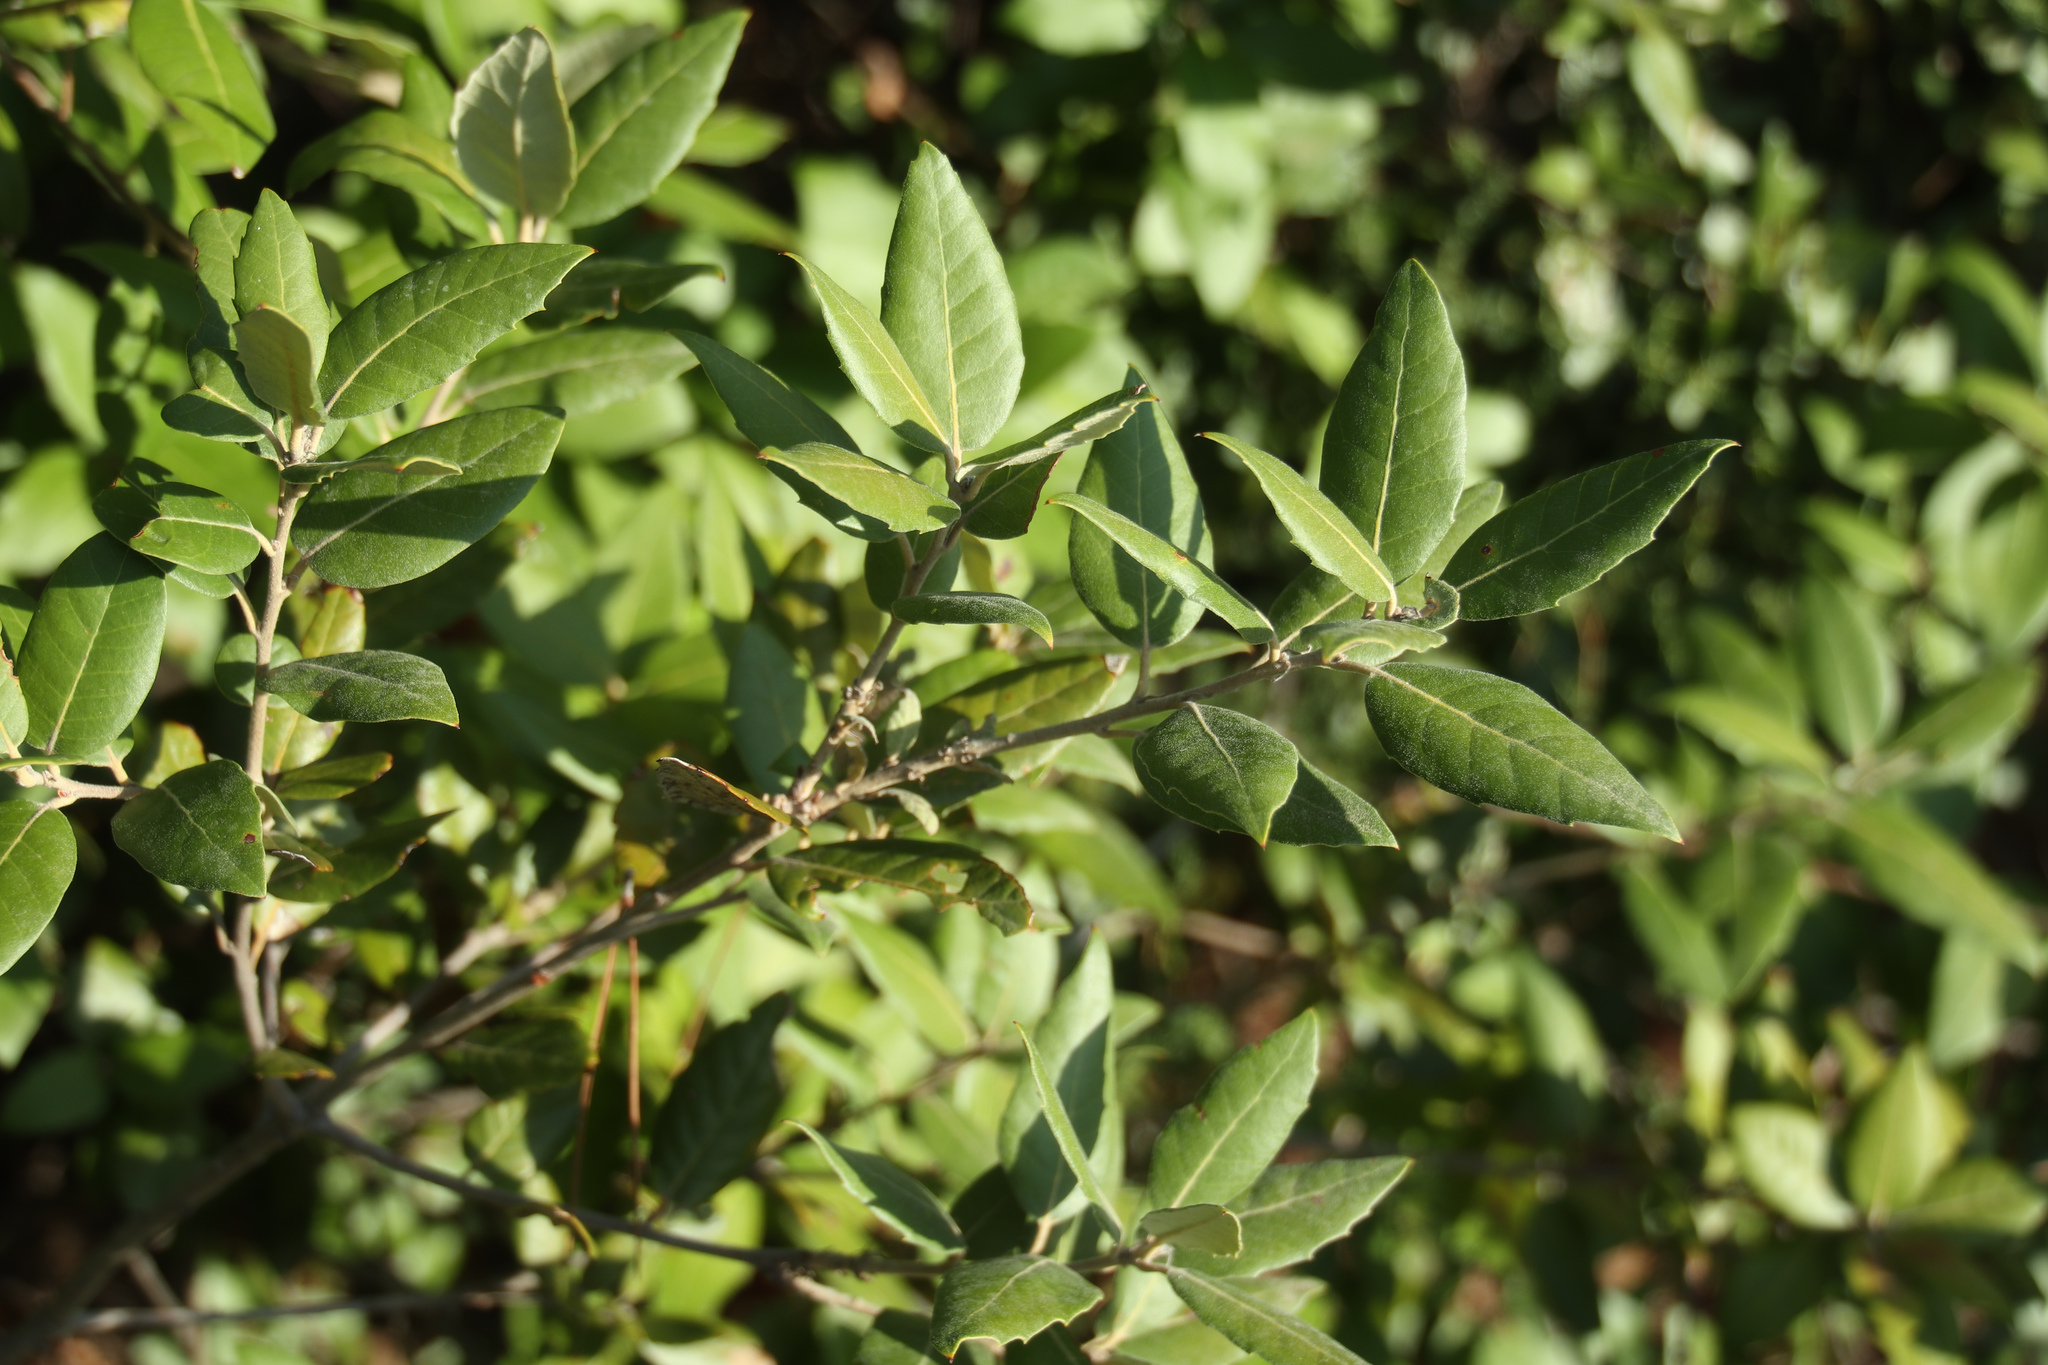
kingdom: Plantae
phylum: Tracheophyta
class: Magnoliopsida
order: Fagales
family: Fagaceae
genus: Quercus
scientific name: Quercus ilex
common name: Evergreen oak
